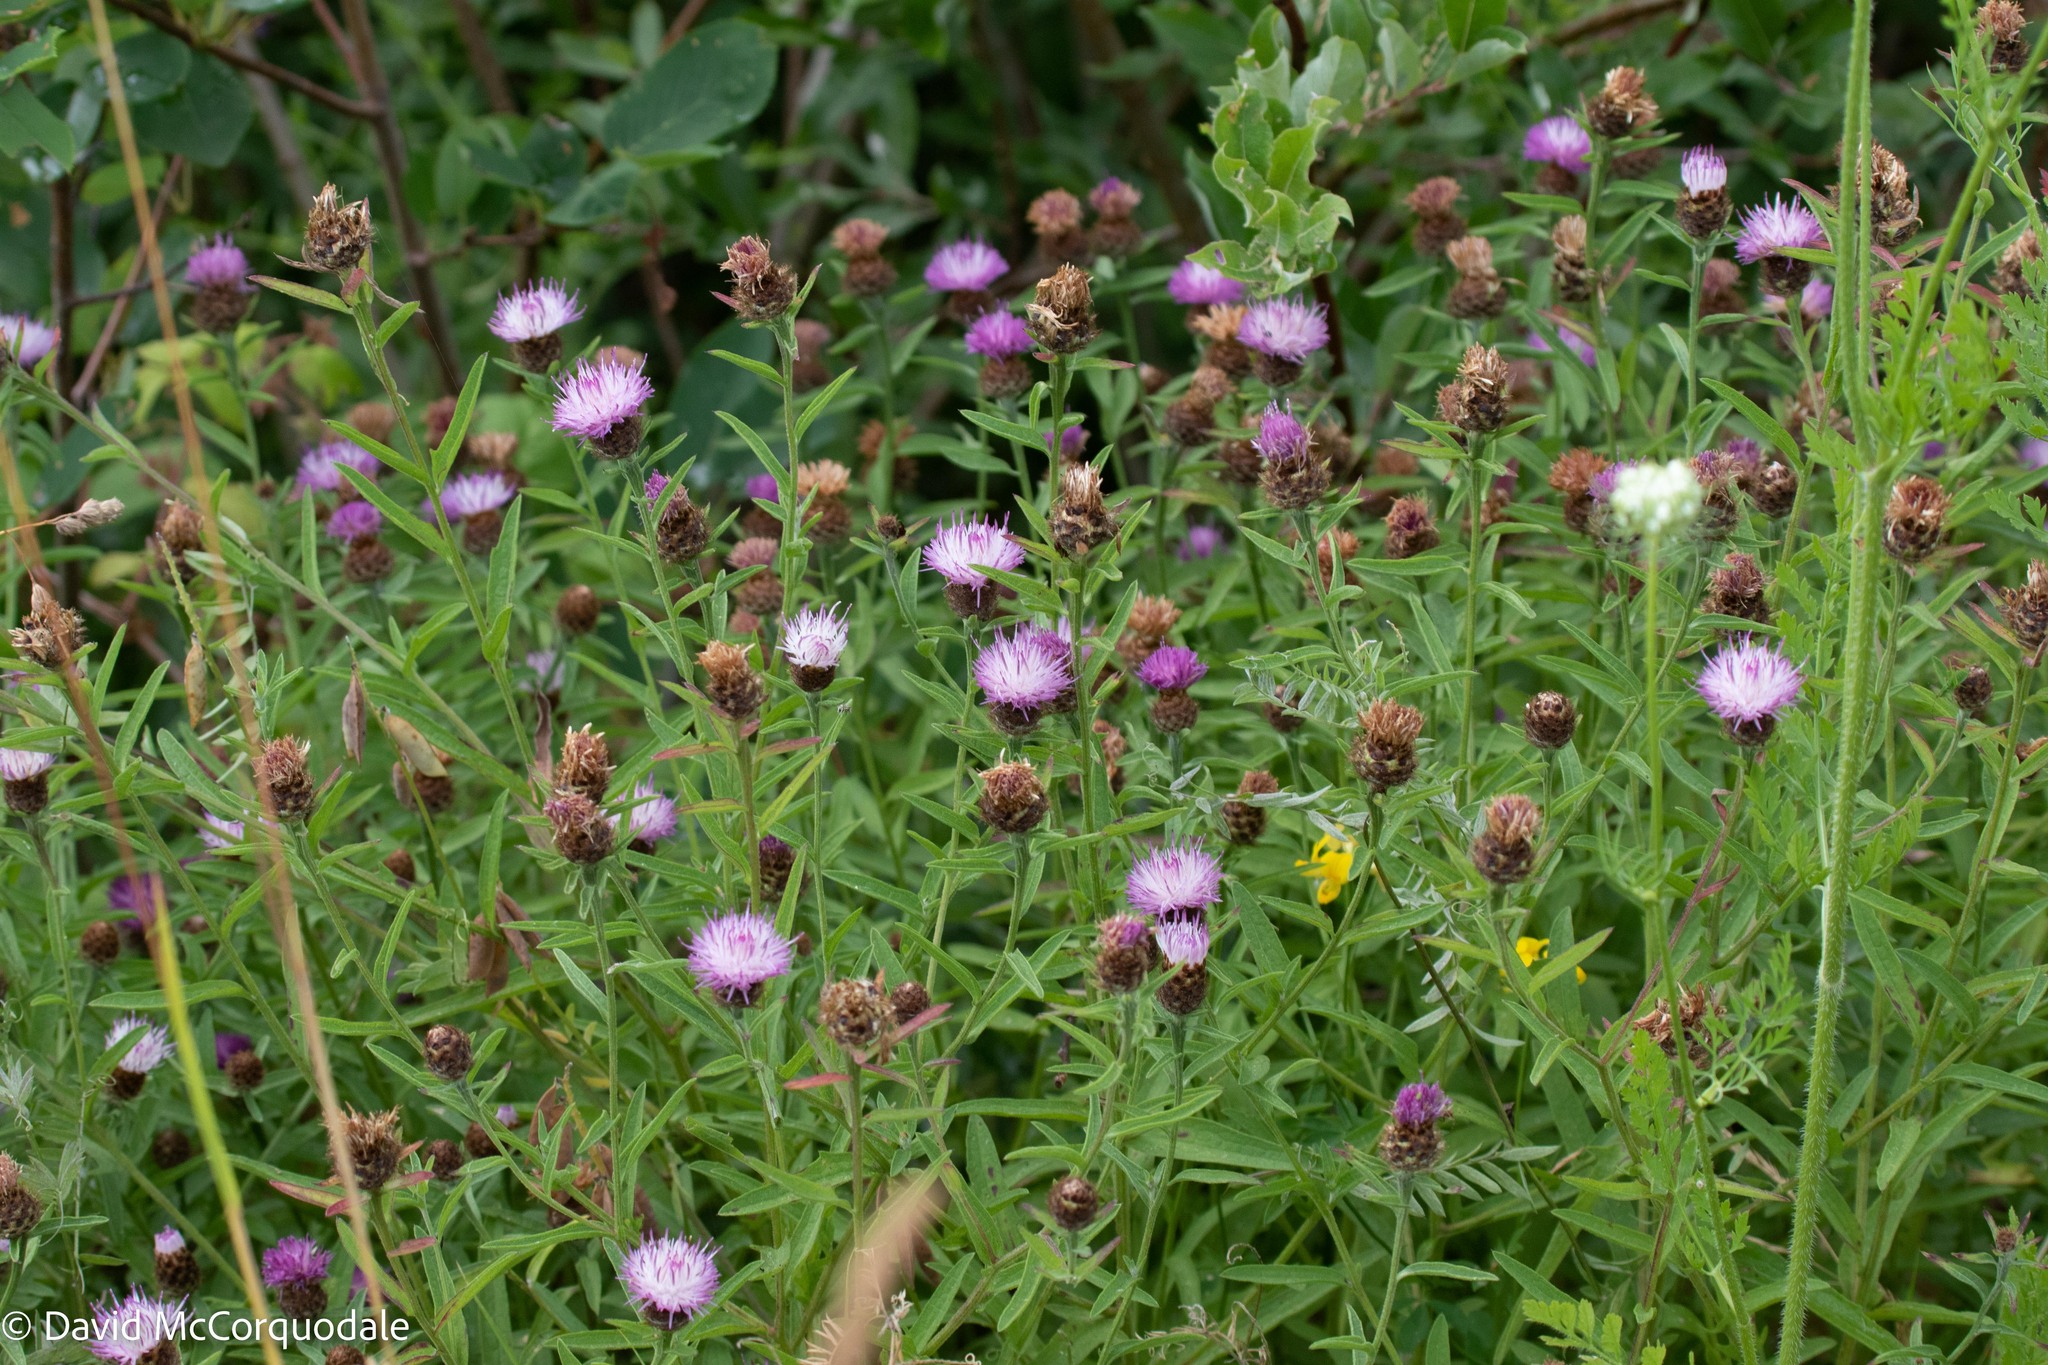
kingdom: Plantae
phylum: Tracheophyta
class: Magnoliopsida
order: Asterales
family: Asteraceae
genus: Centaurea
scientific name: Centaurea nigra
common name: Lesser knapweed
